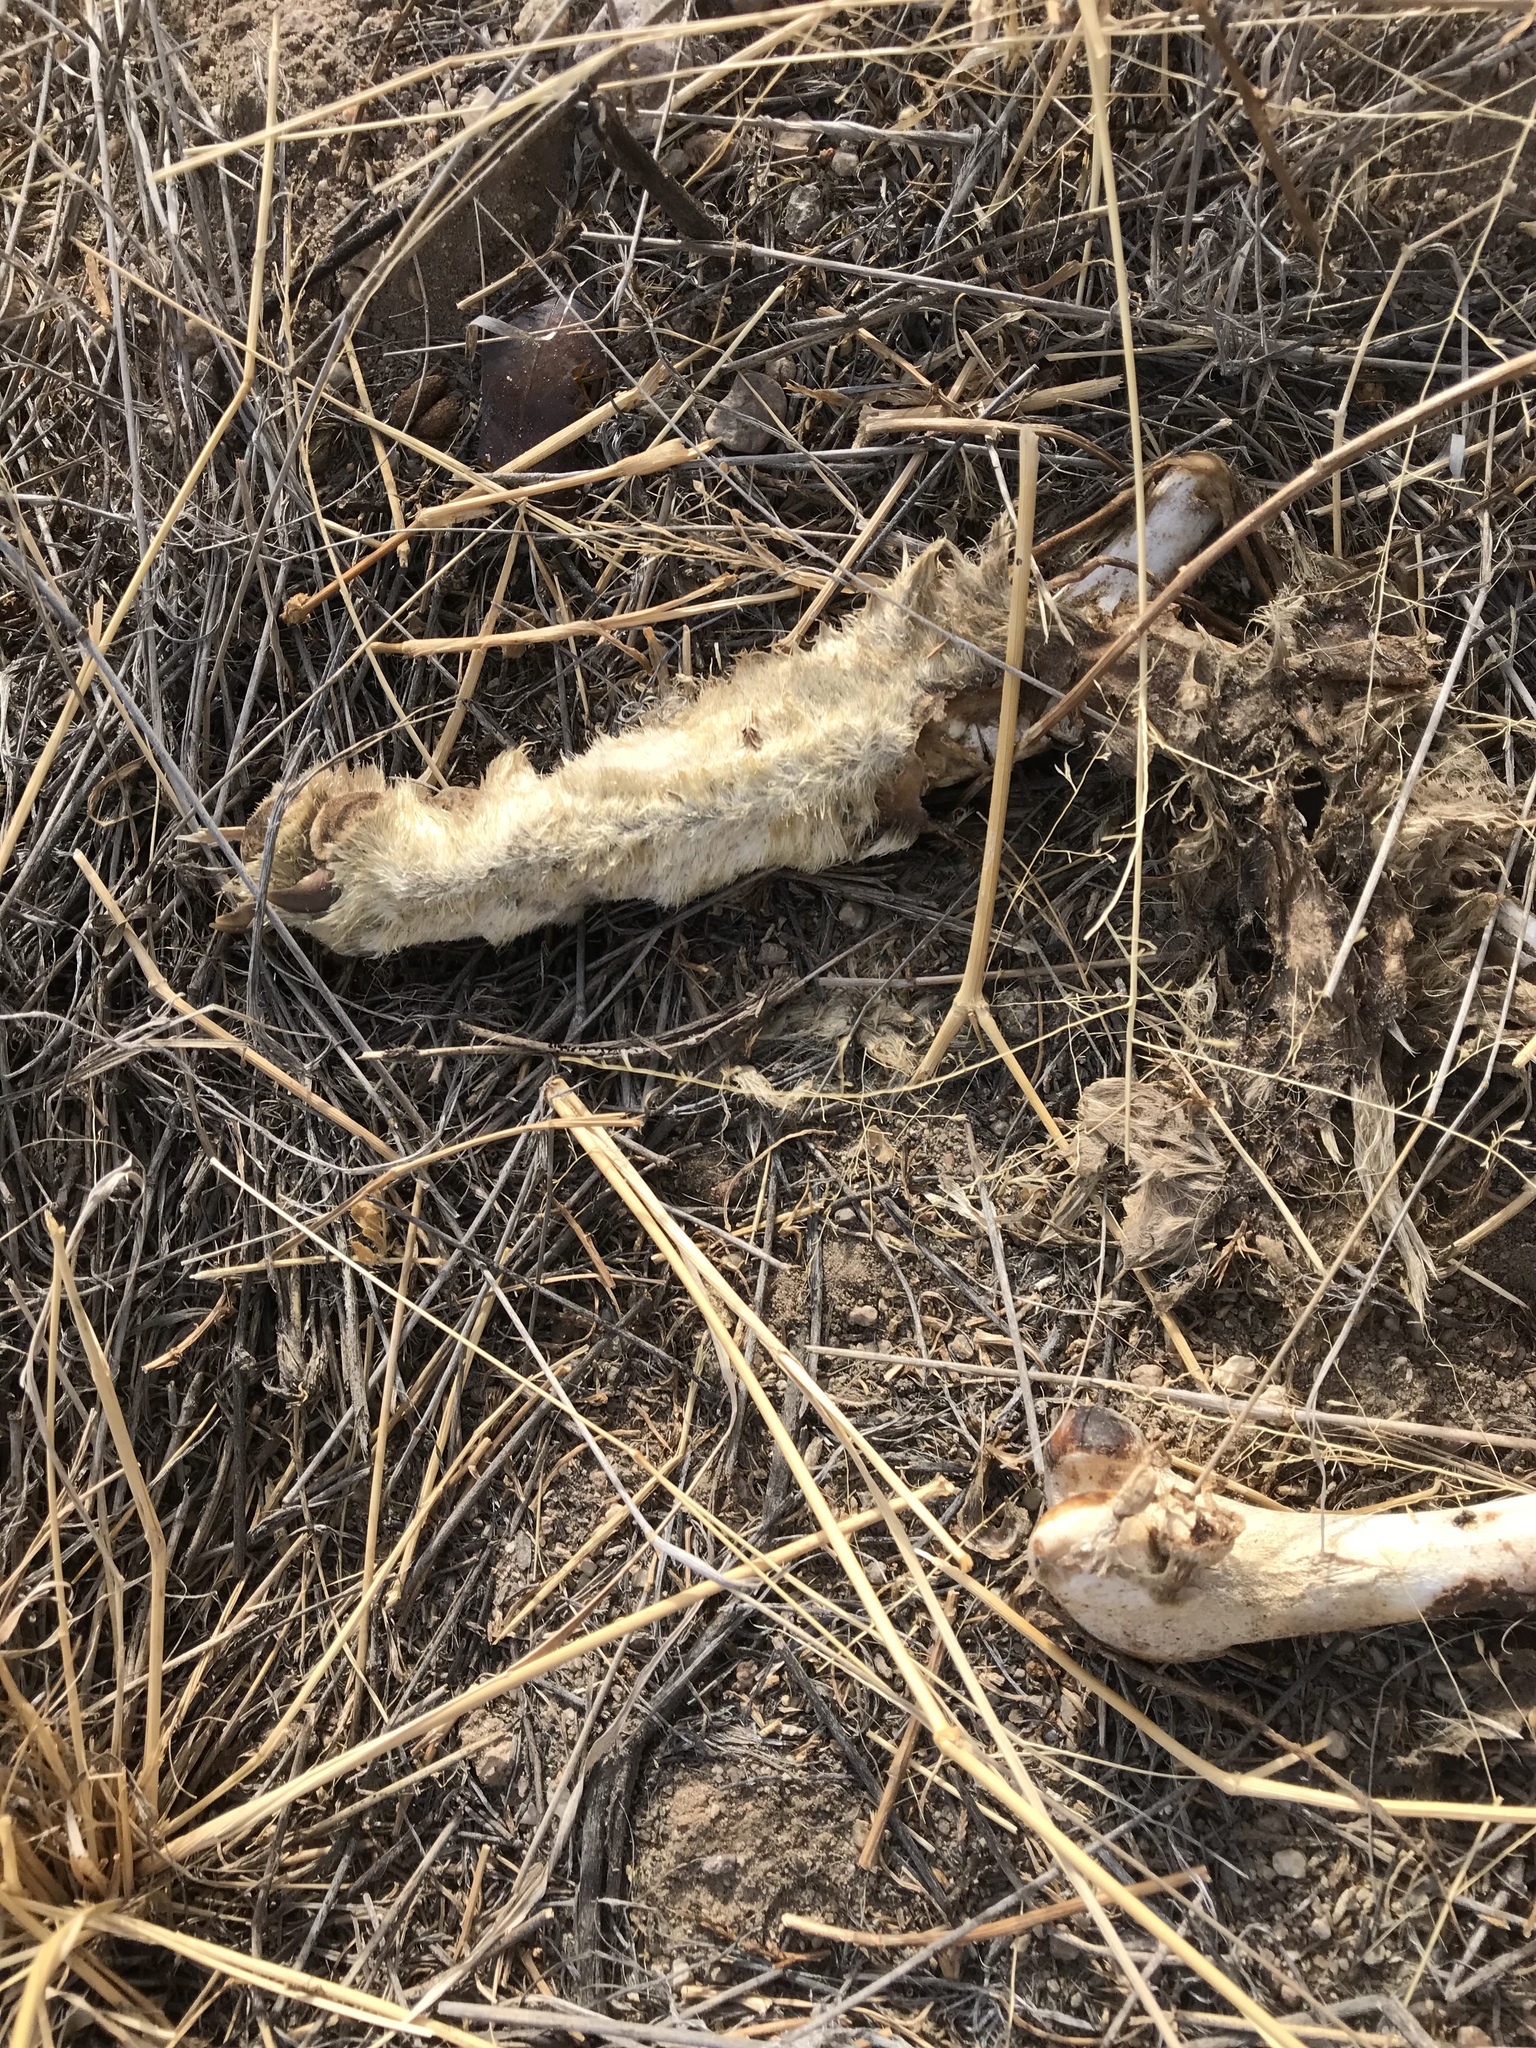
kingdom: Animalia
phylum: Chordata
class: Mammalia
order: Carnivora
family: Canidae
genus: Canis
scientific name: Canis latrans
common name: Coyote
